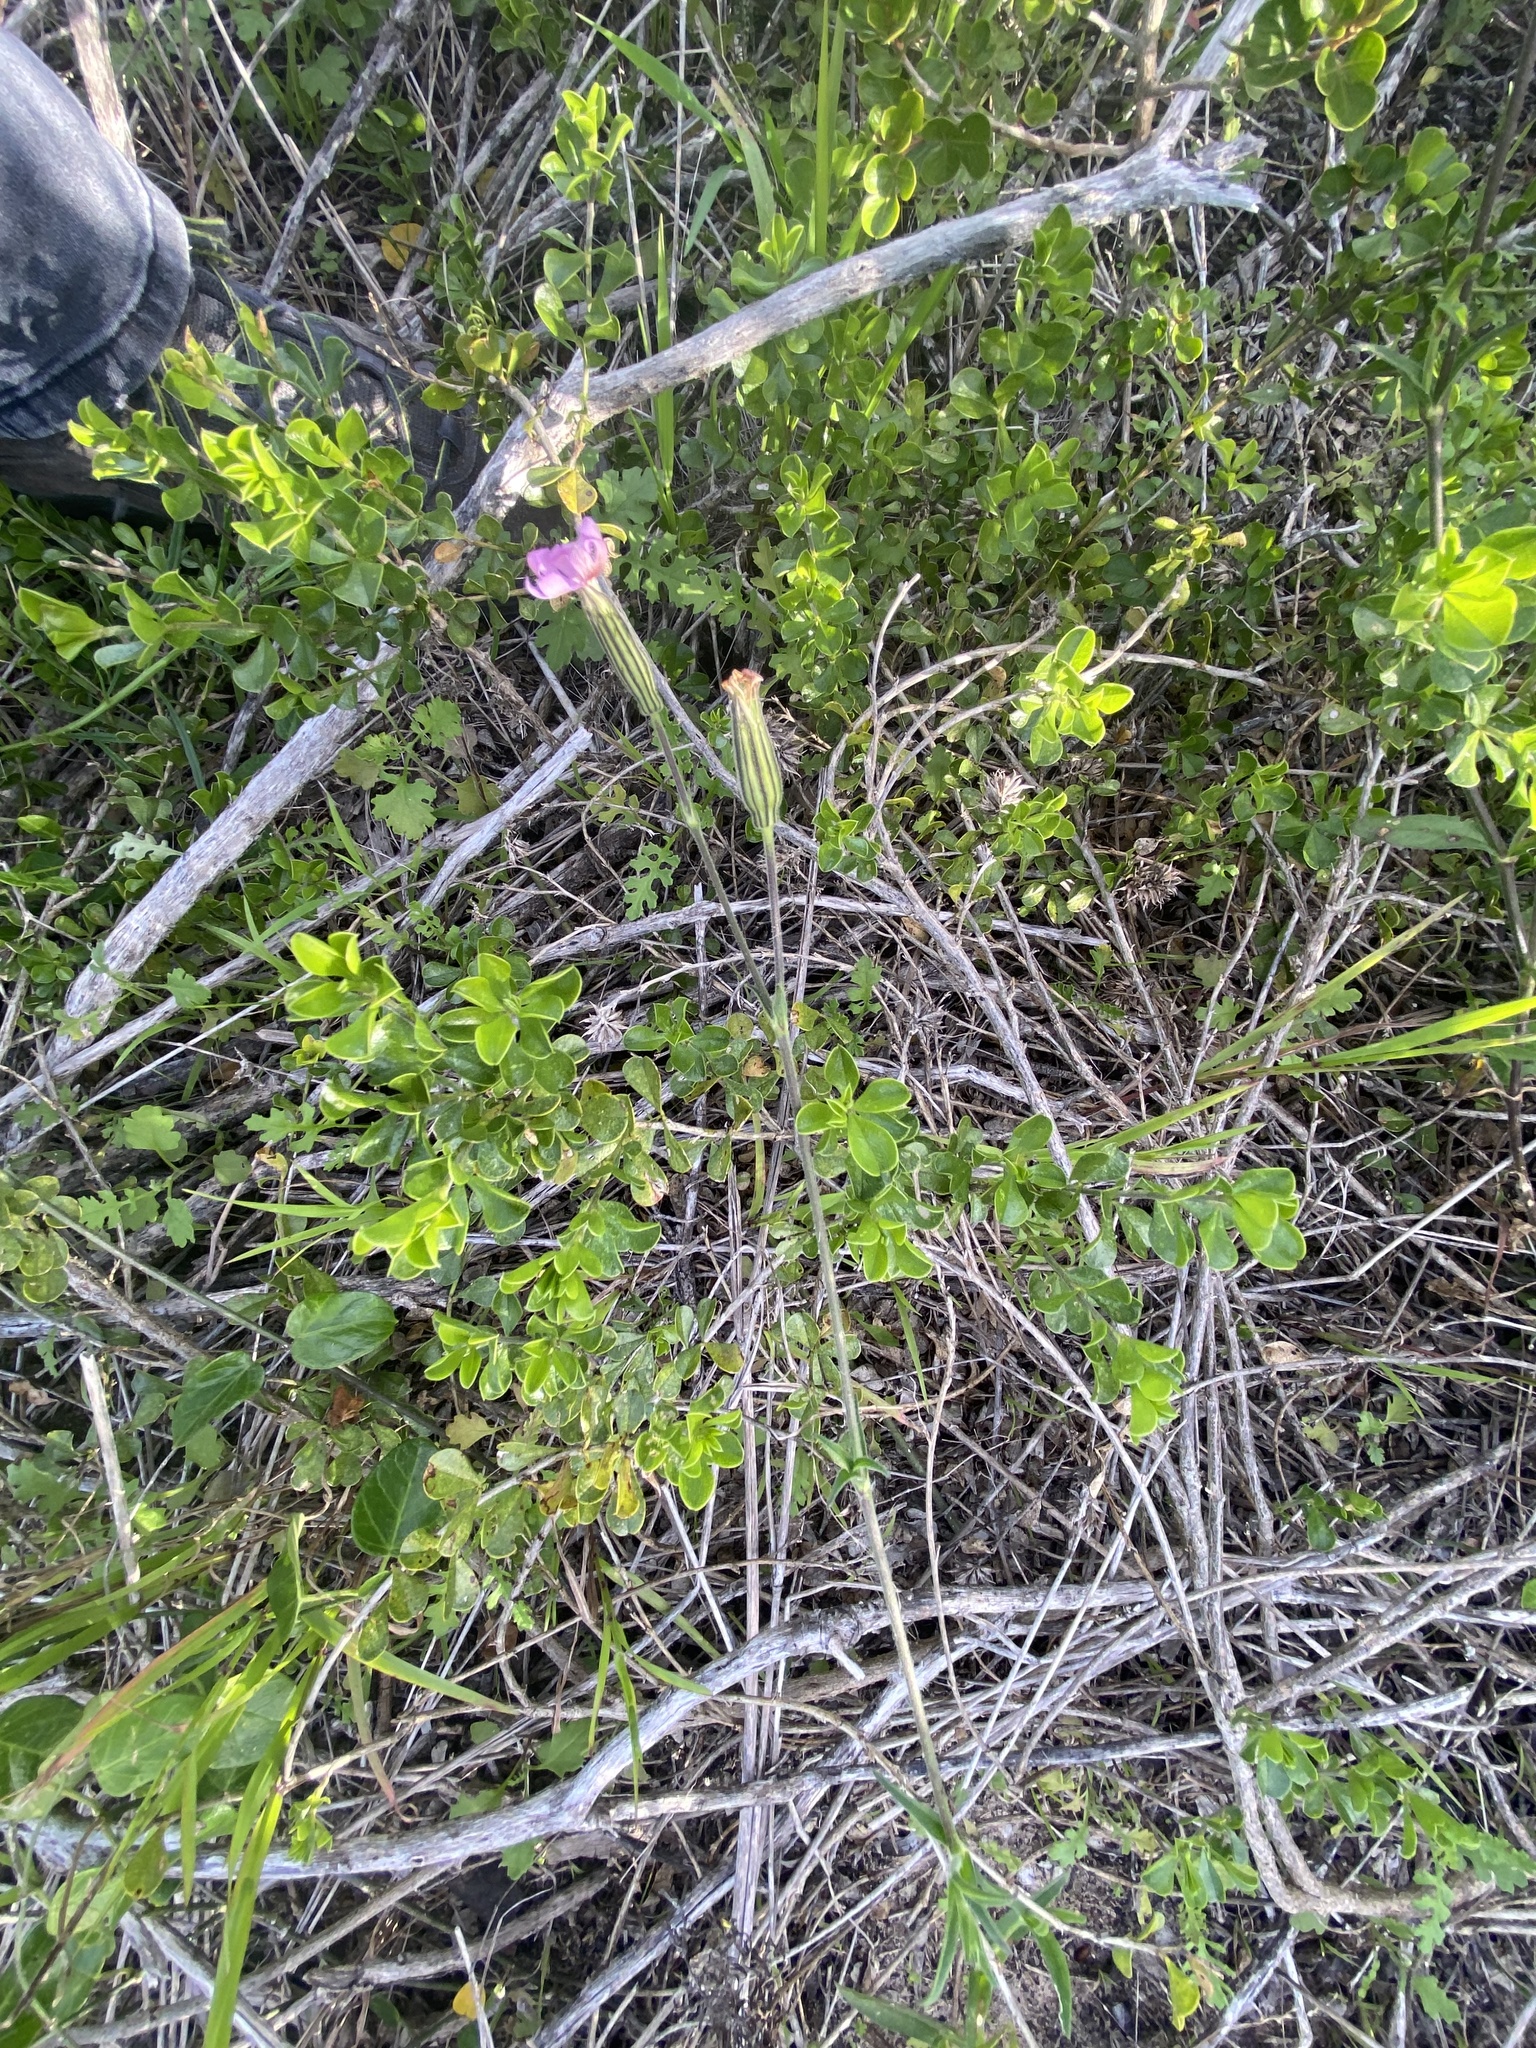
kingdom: Plantae
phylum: Tracheophyta
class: Magnoliopsida
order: Caryophyllales
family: Caryophyllaceae
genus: Silene
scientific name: Silene undulata
